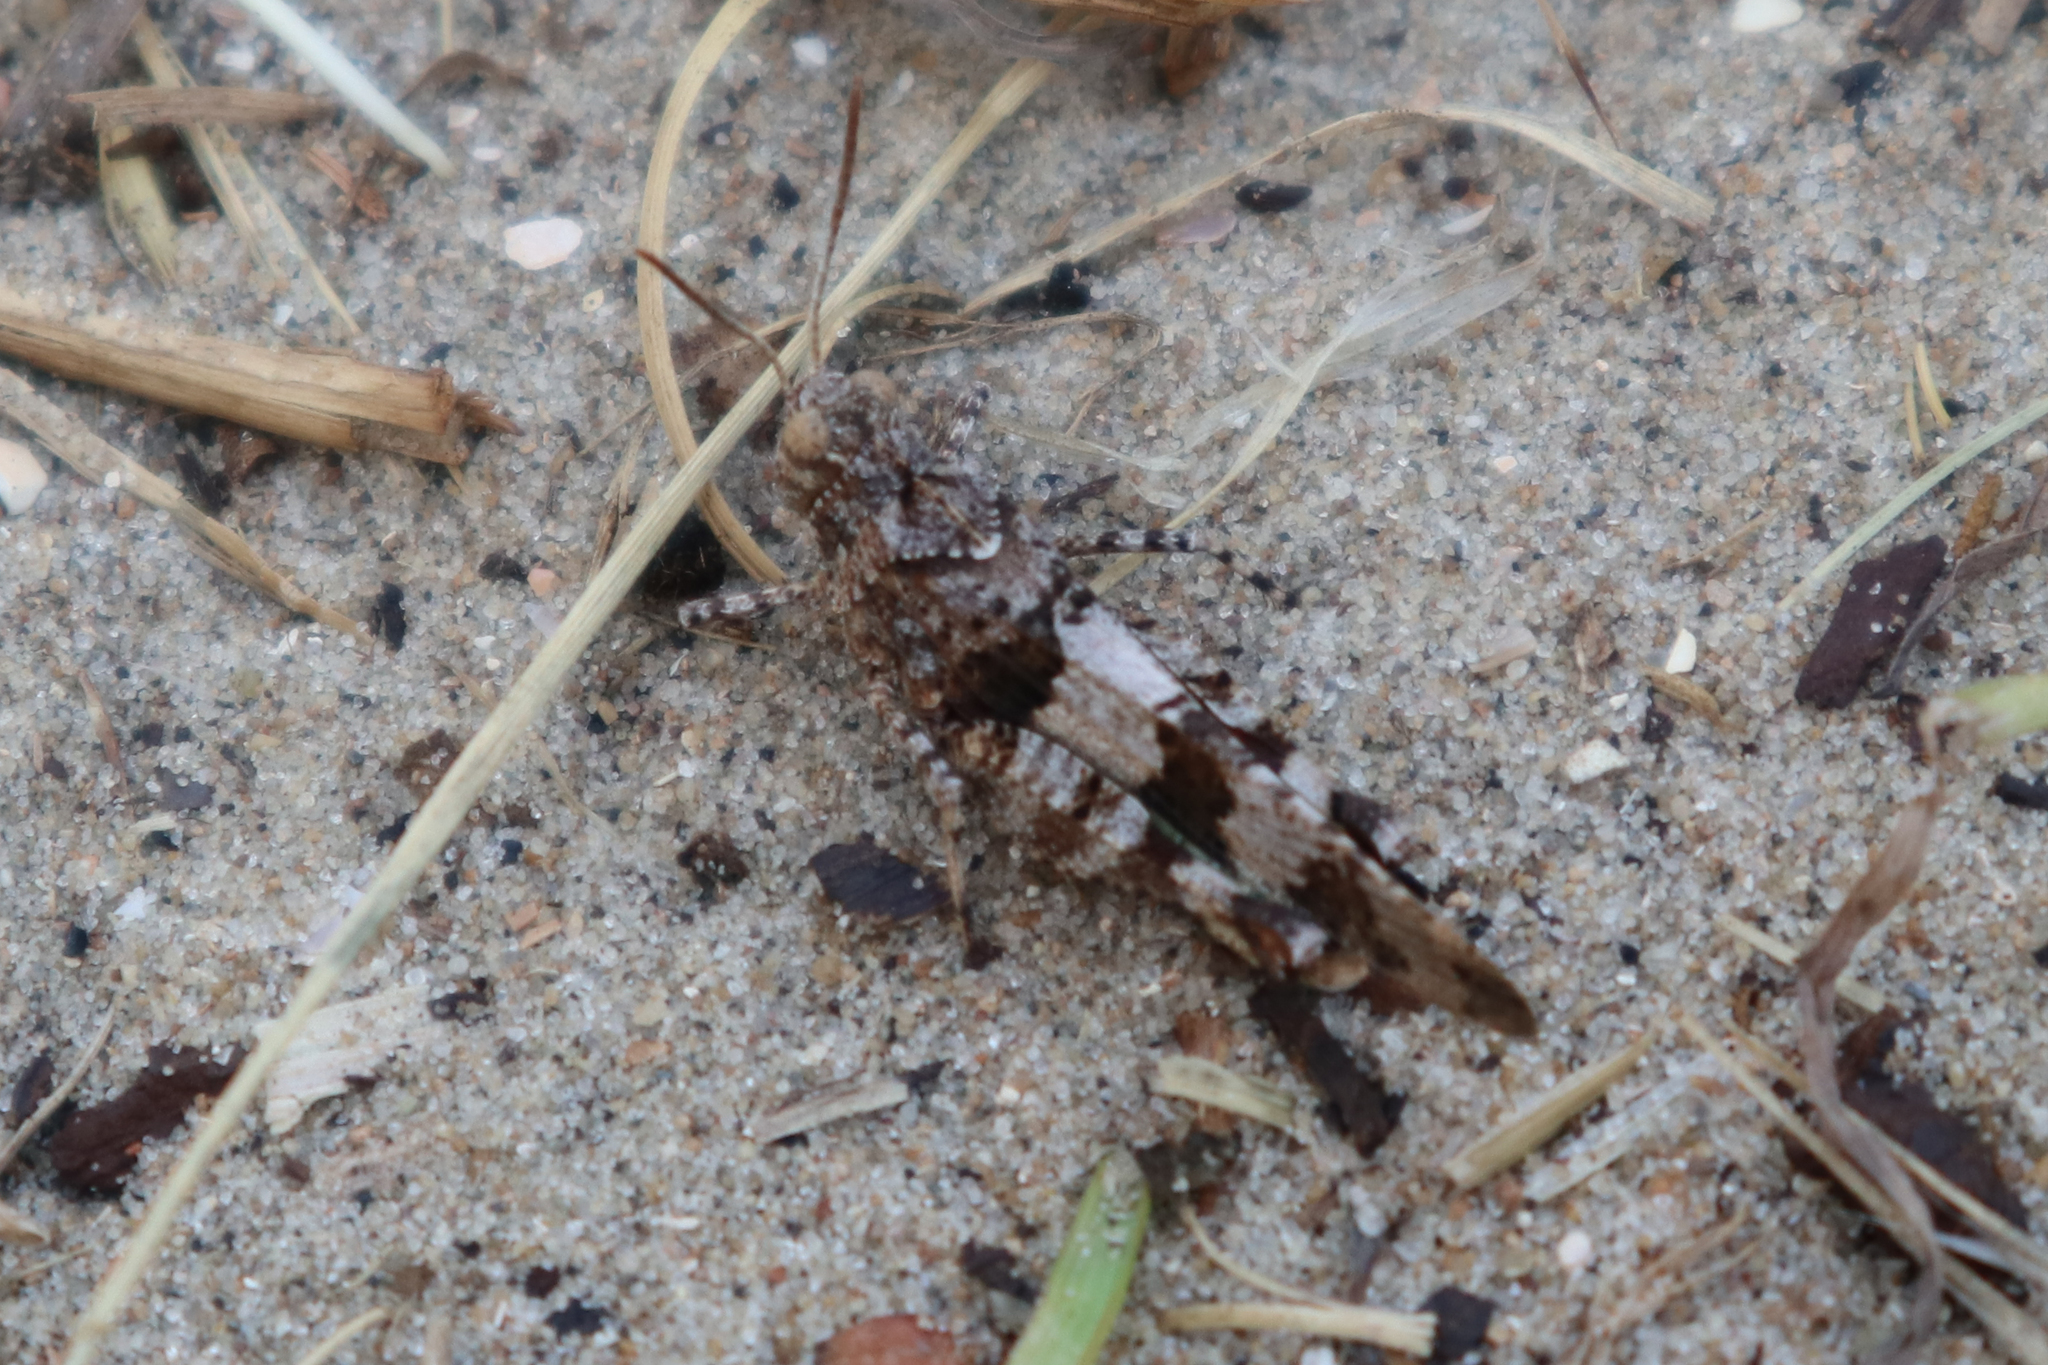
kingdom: Animalia
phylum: Arthropoda
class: Insecta
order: Orthoptera
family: Acrididae
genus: Oedipoda
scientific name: Oedipoda caerulescens
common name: Blue-winged grasshopper
